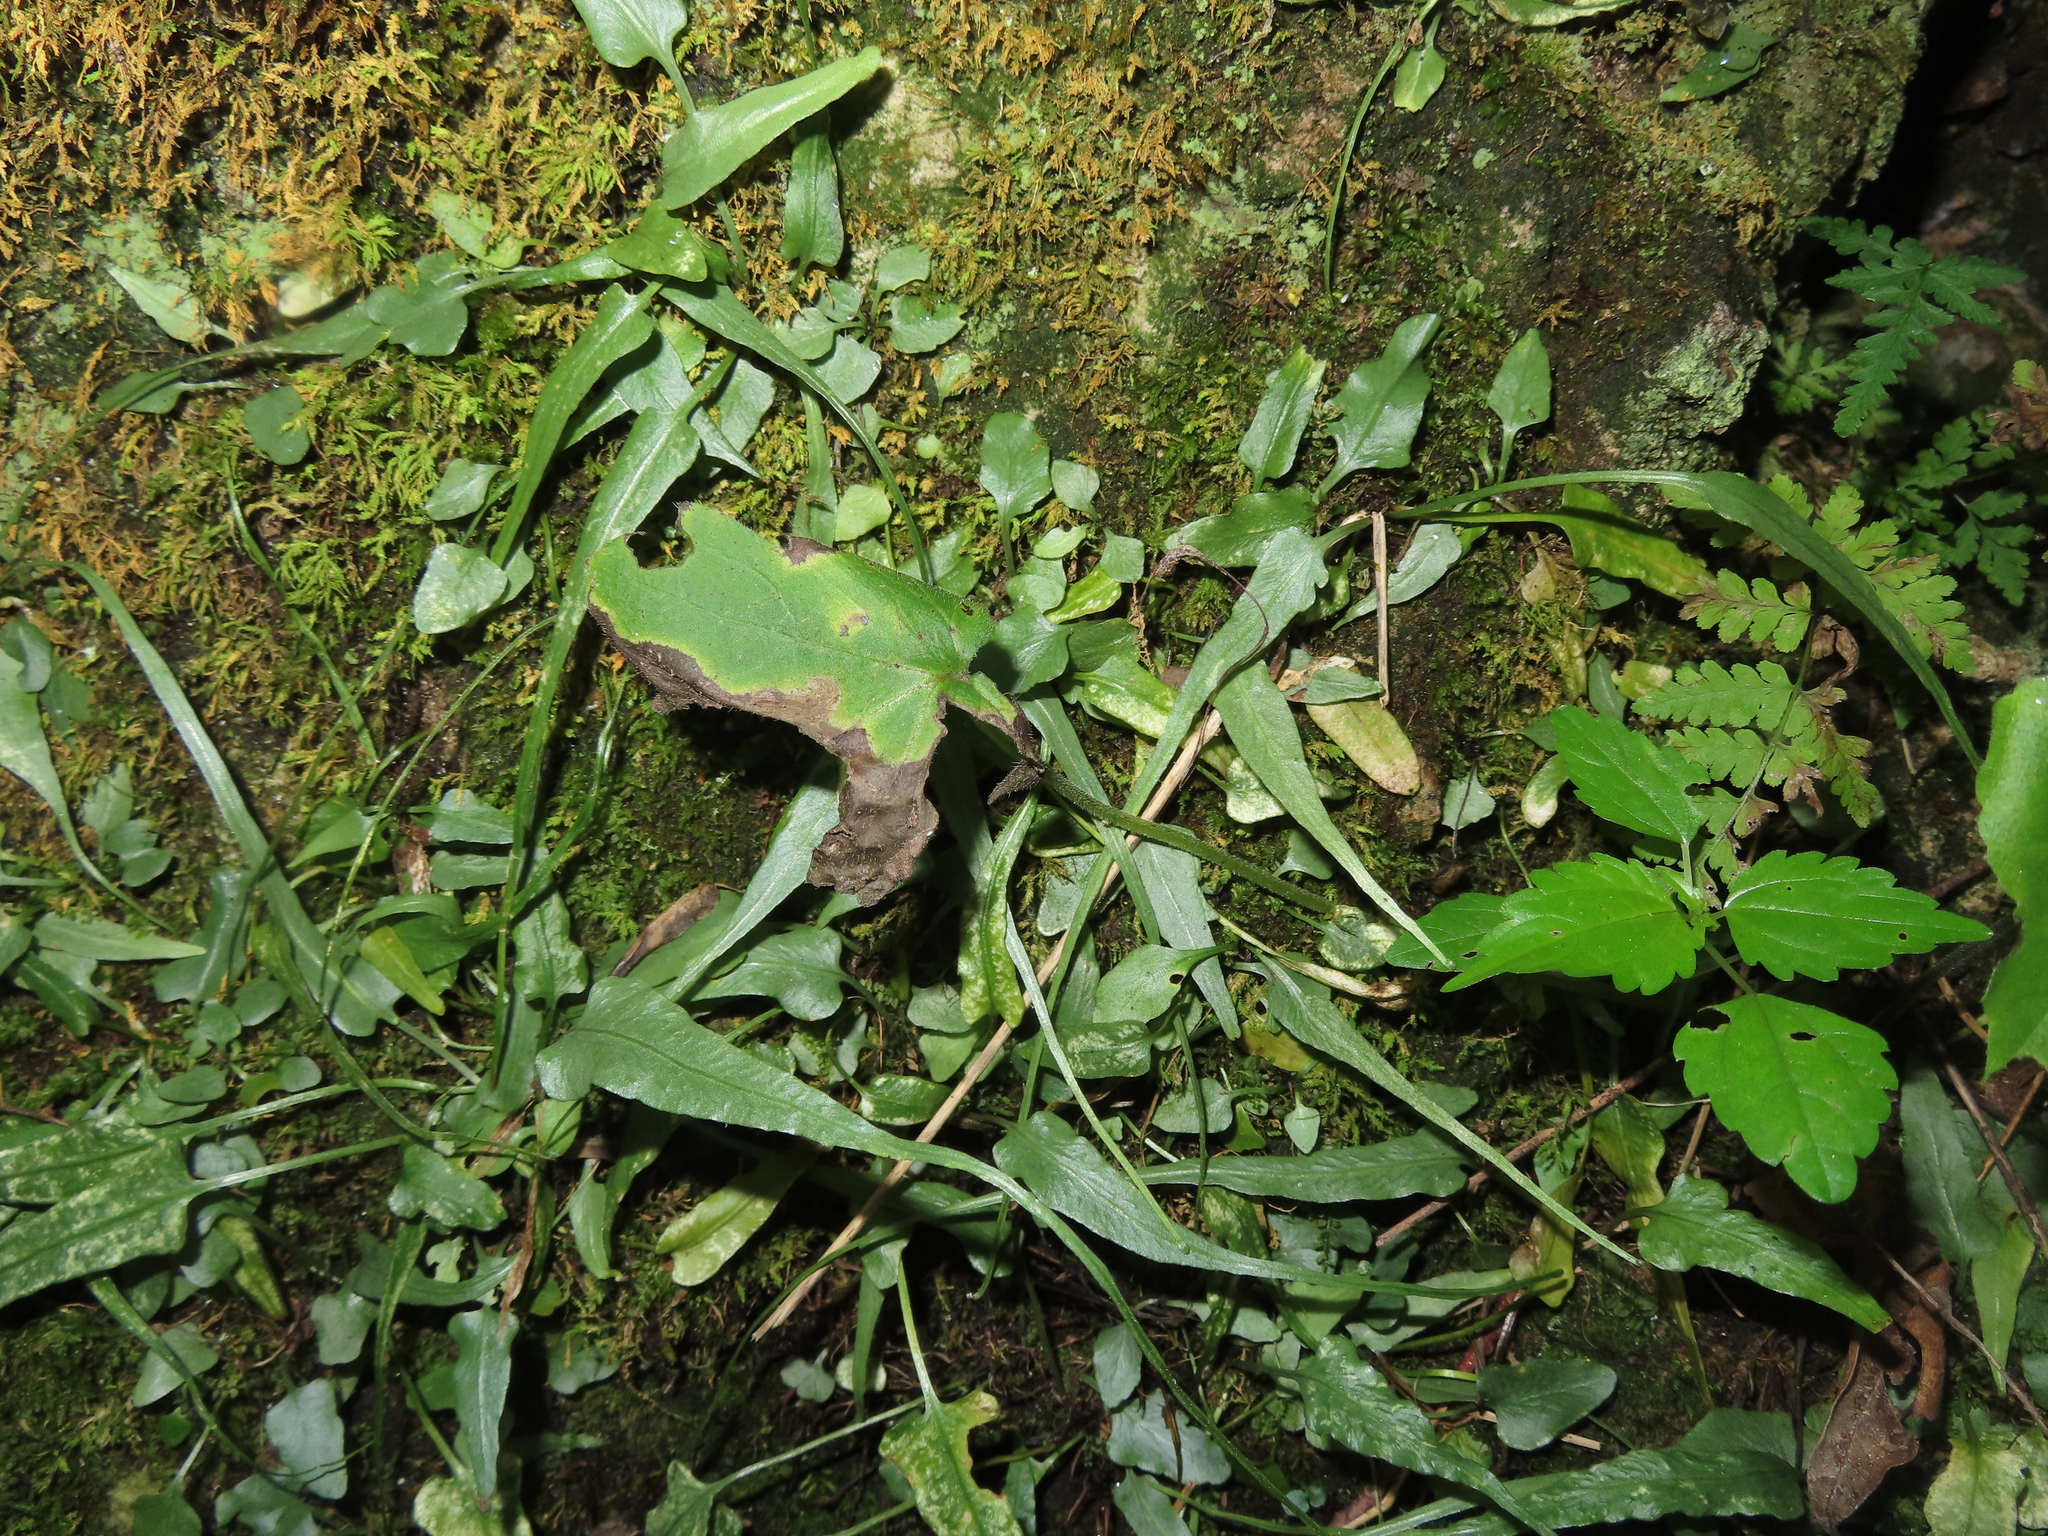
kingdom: Plantae
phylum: Tracheophyta
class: Polypodiopsida
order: Polypodiales
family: Aspleniaceae
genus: Asplenium
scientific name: Asplenium rhizophyllum
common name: Walking fern
